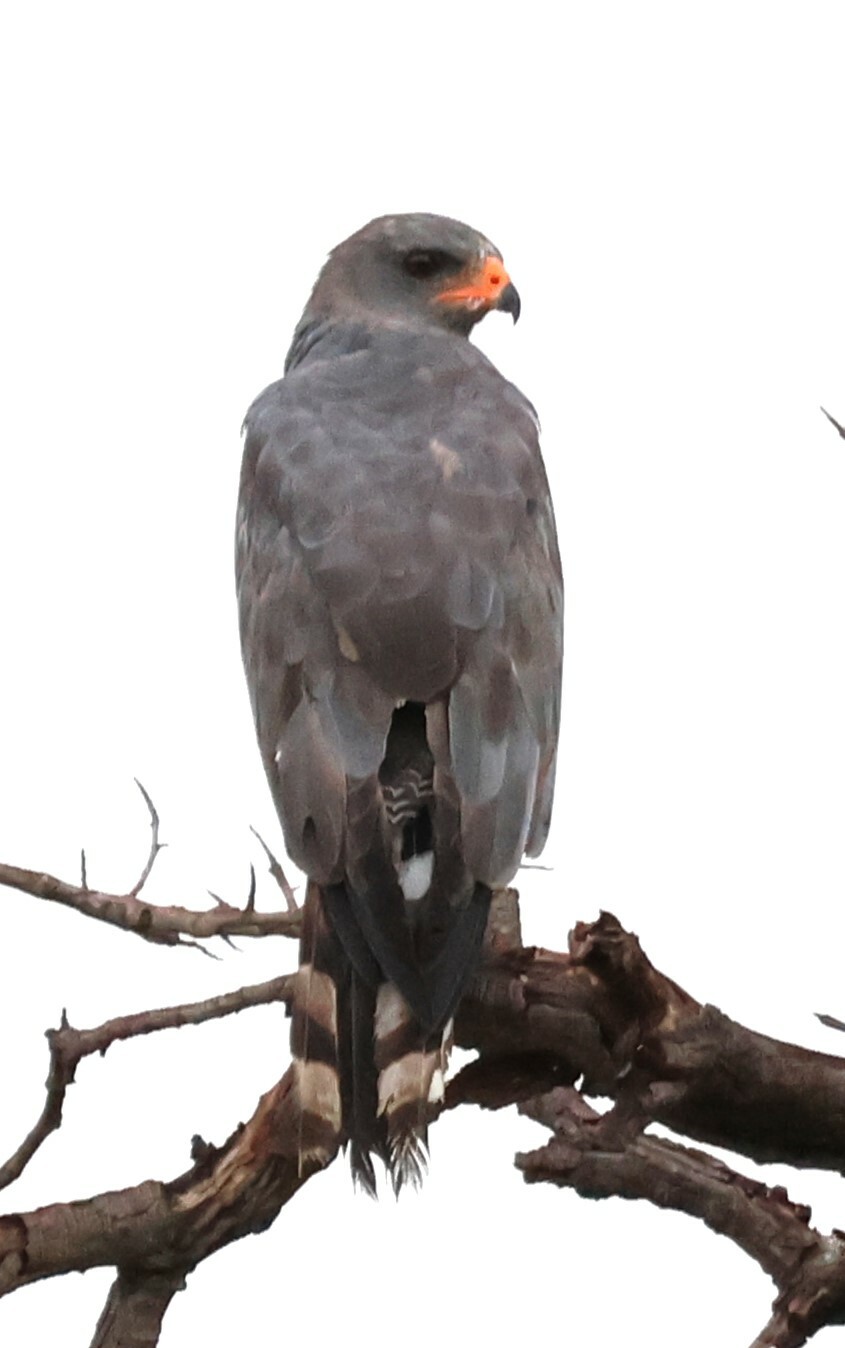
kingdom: Animalia
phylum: Chordata
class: Aves
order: Accipitriformes
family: Accipitridae
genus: Melierax
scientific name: Melierax metabates
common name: Dark chanting-goshawk
